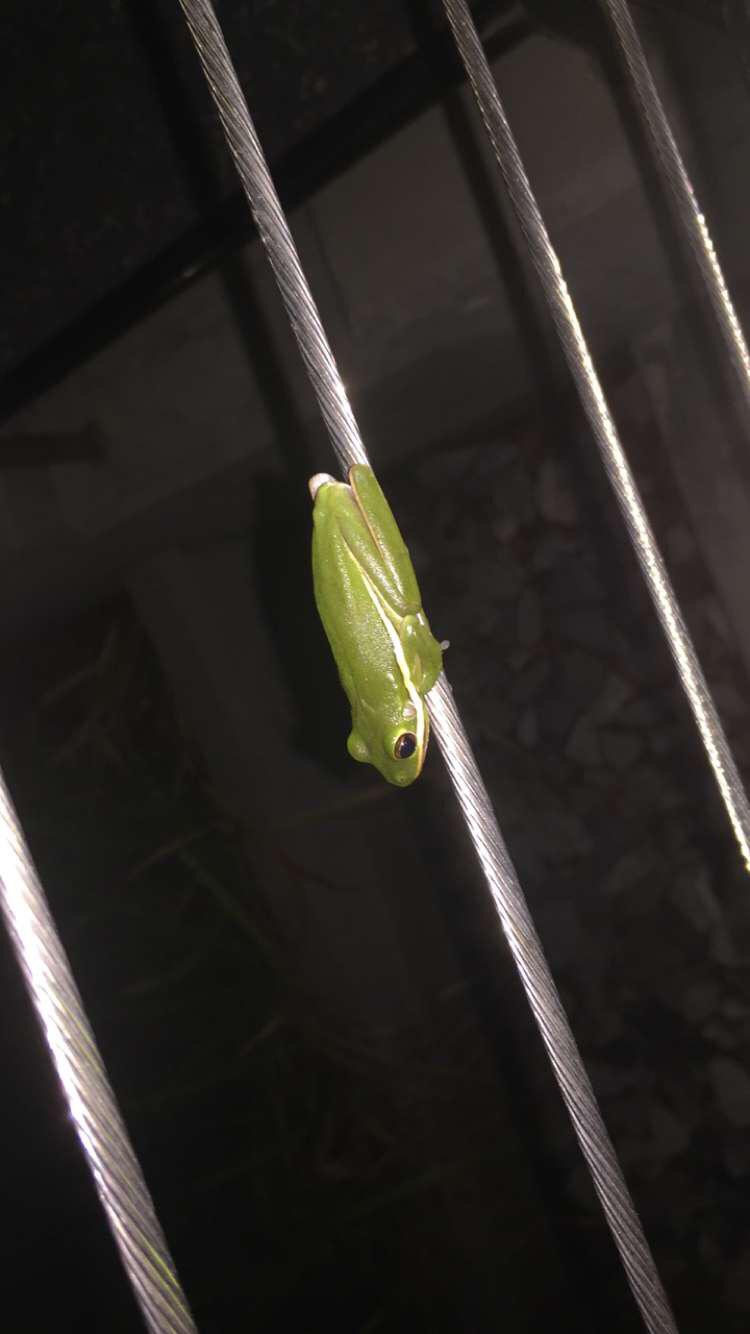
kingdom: Animalia
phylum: Chordata
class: Amphibia
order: Anura
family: Hylidae
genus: Dryophytes
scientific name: Dryophytes cinereus
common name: Green treefrog
